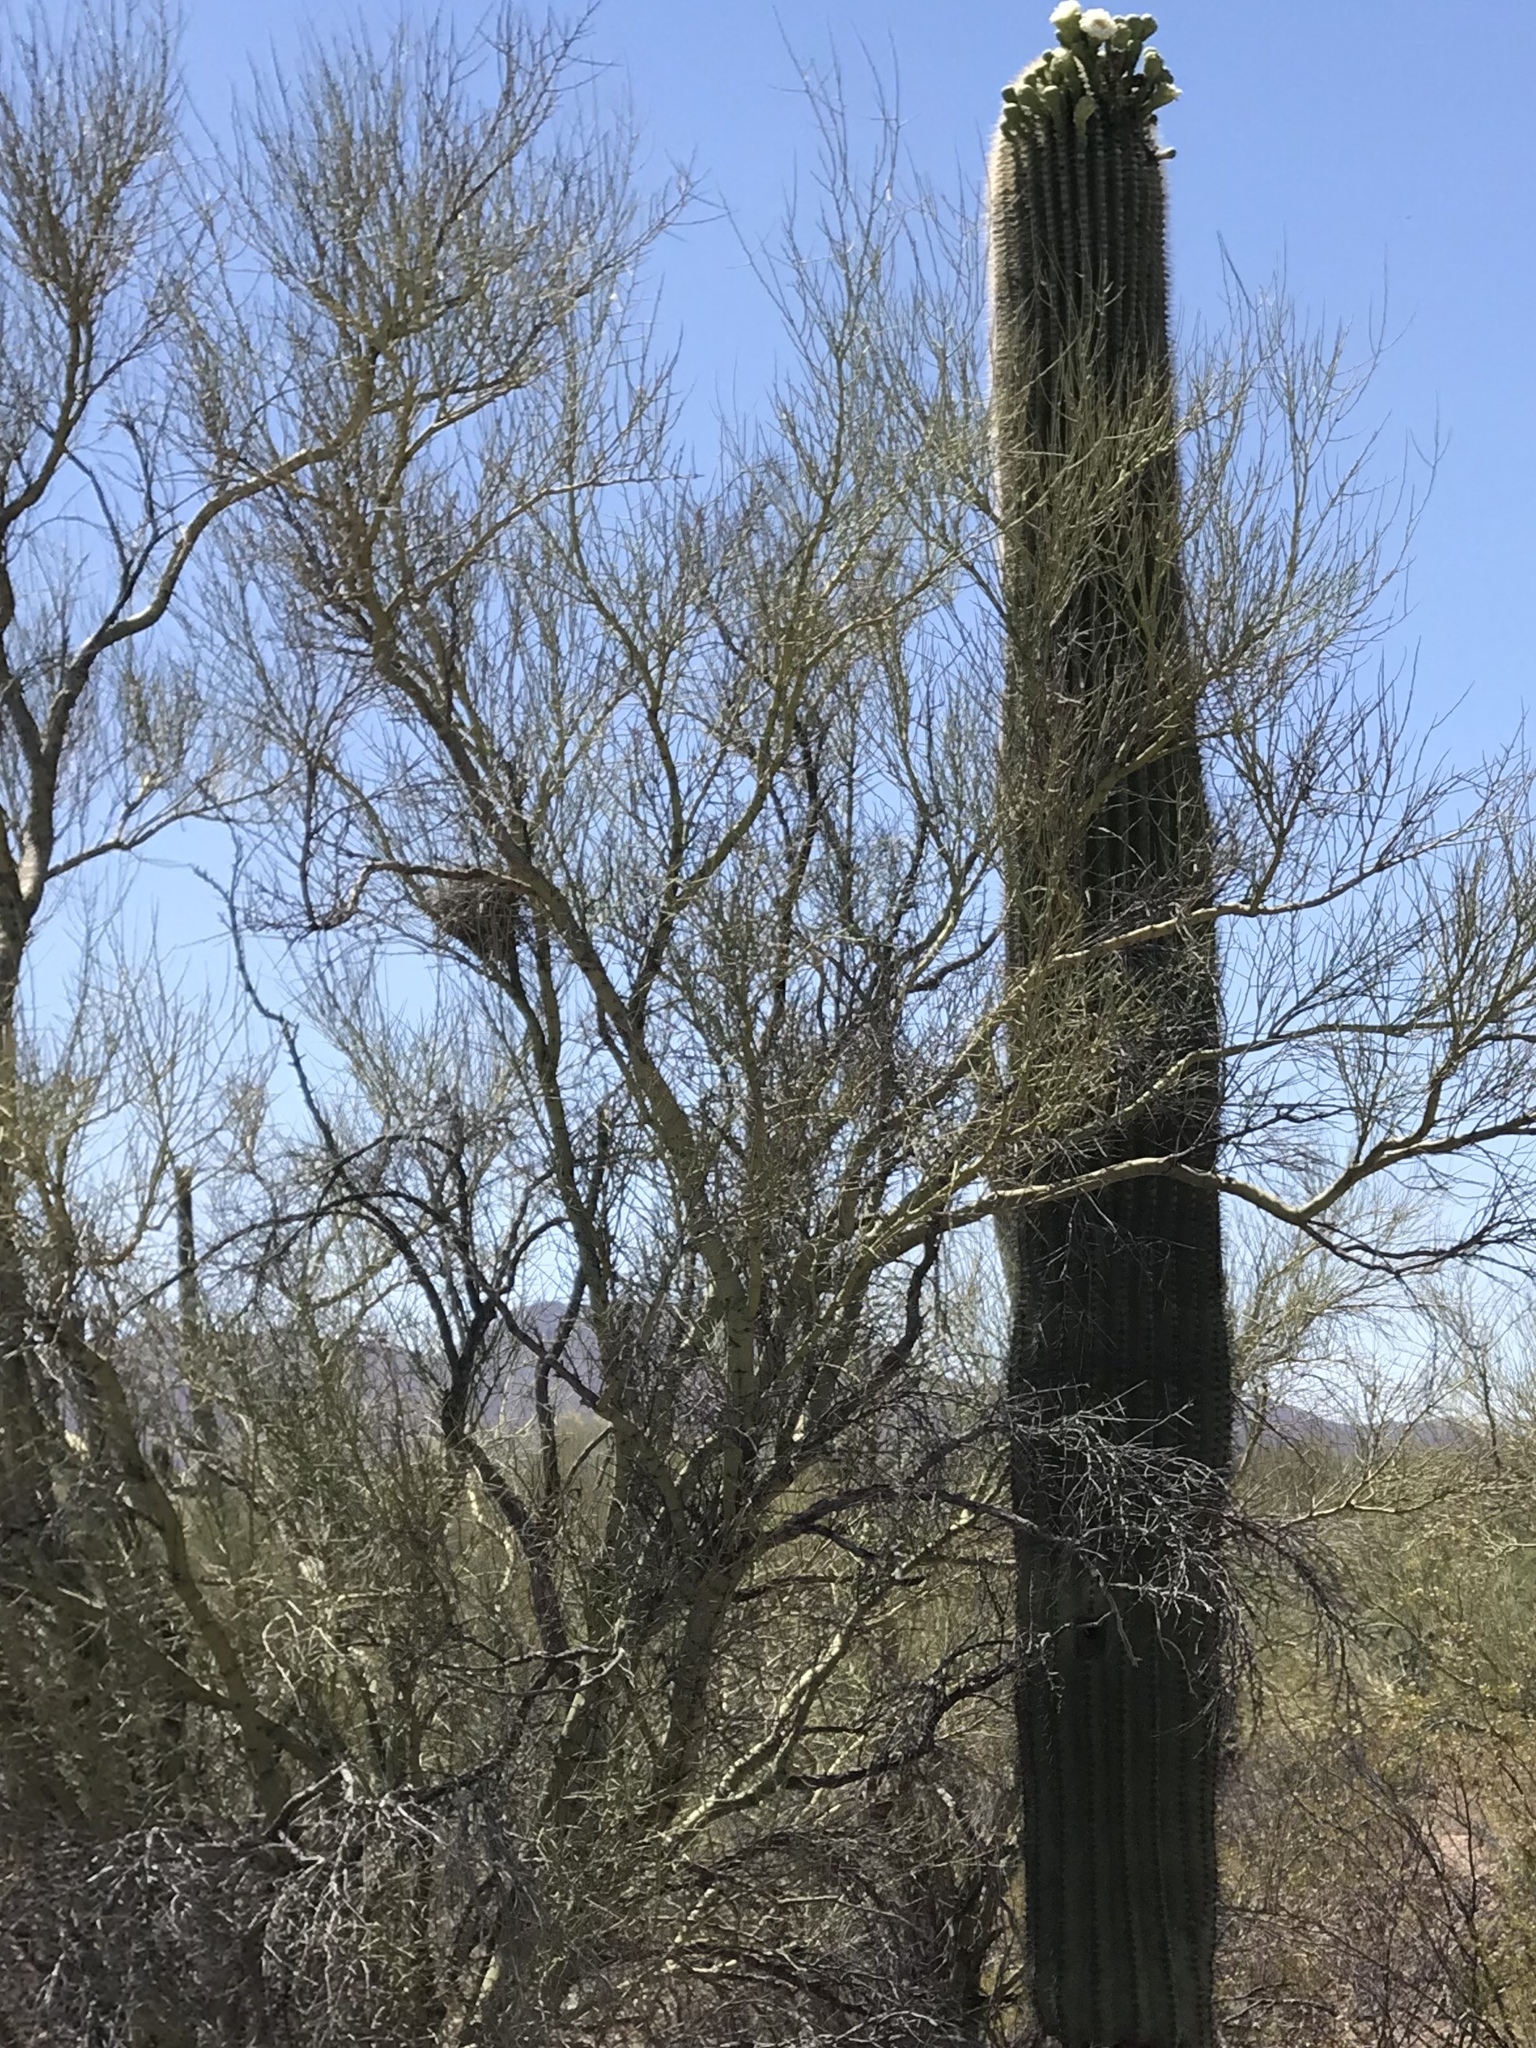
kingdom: Plantae
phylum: Tracheophyta
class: Magnoliopsida
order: Fabales
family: Fabaceae
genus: Parkinsonia
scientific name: Parkinsonia microphylla
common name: Yellow paloverde
